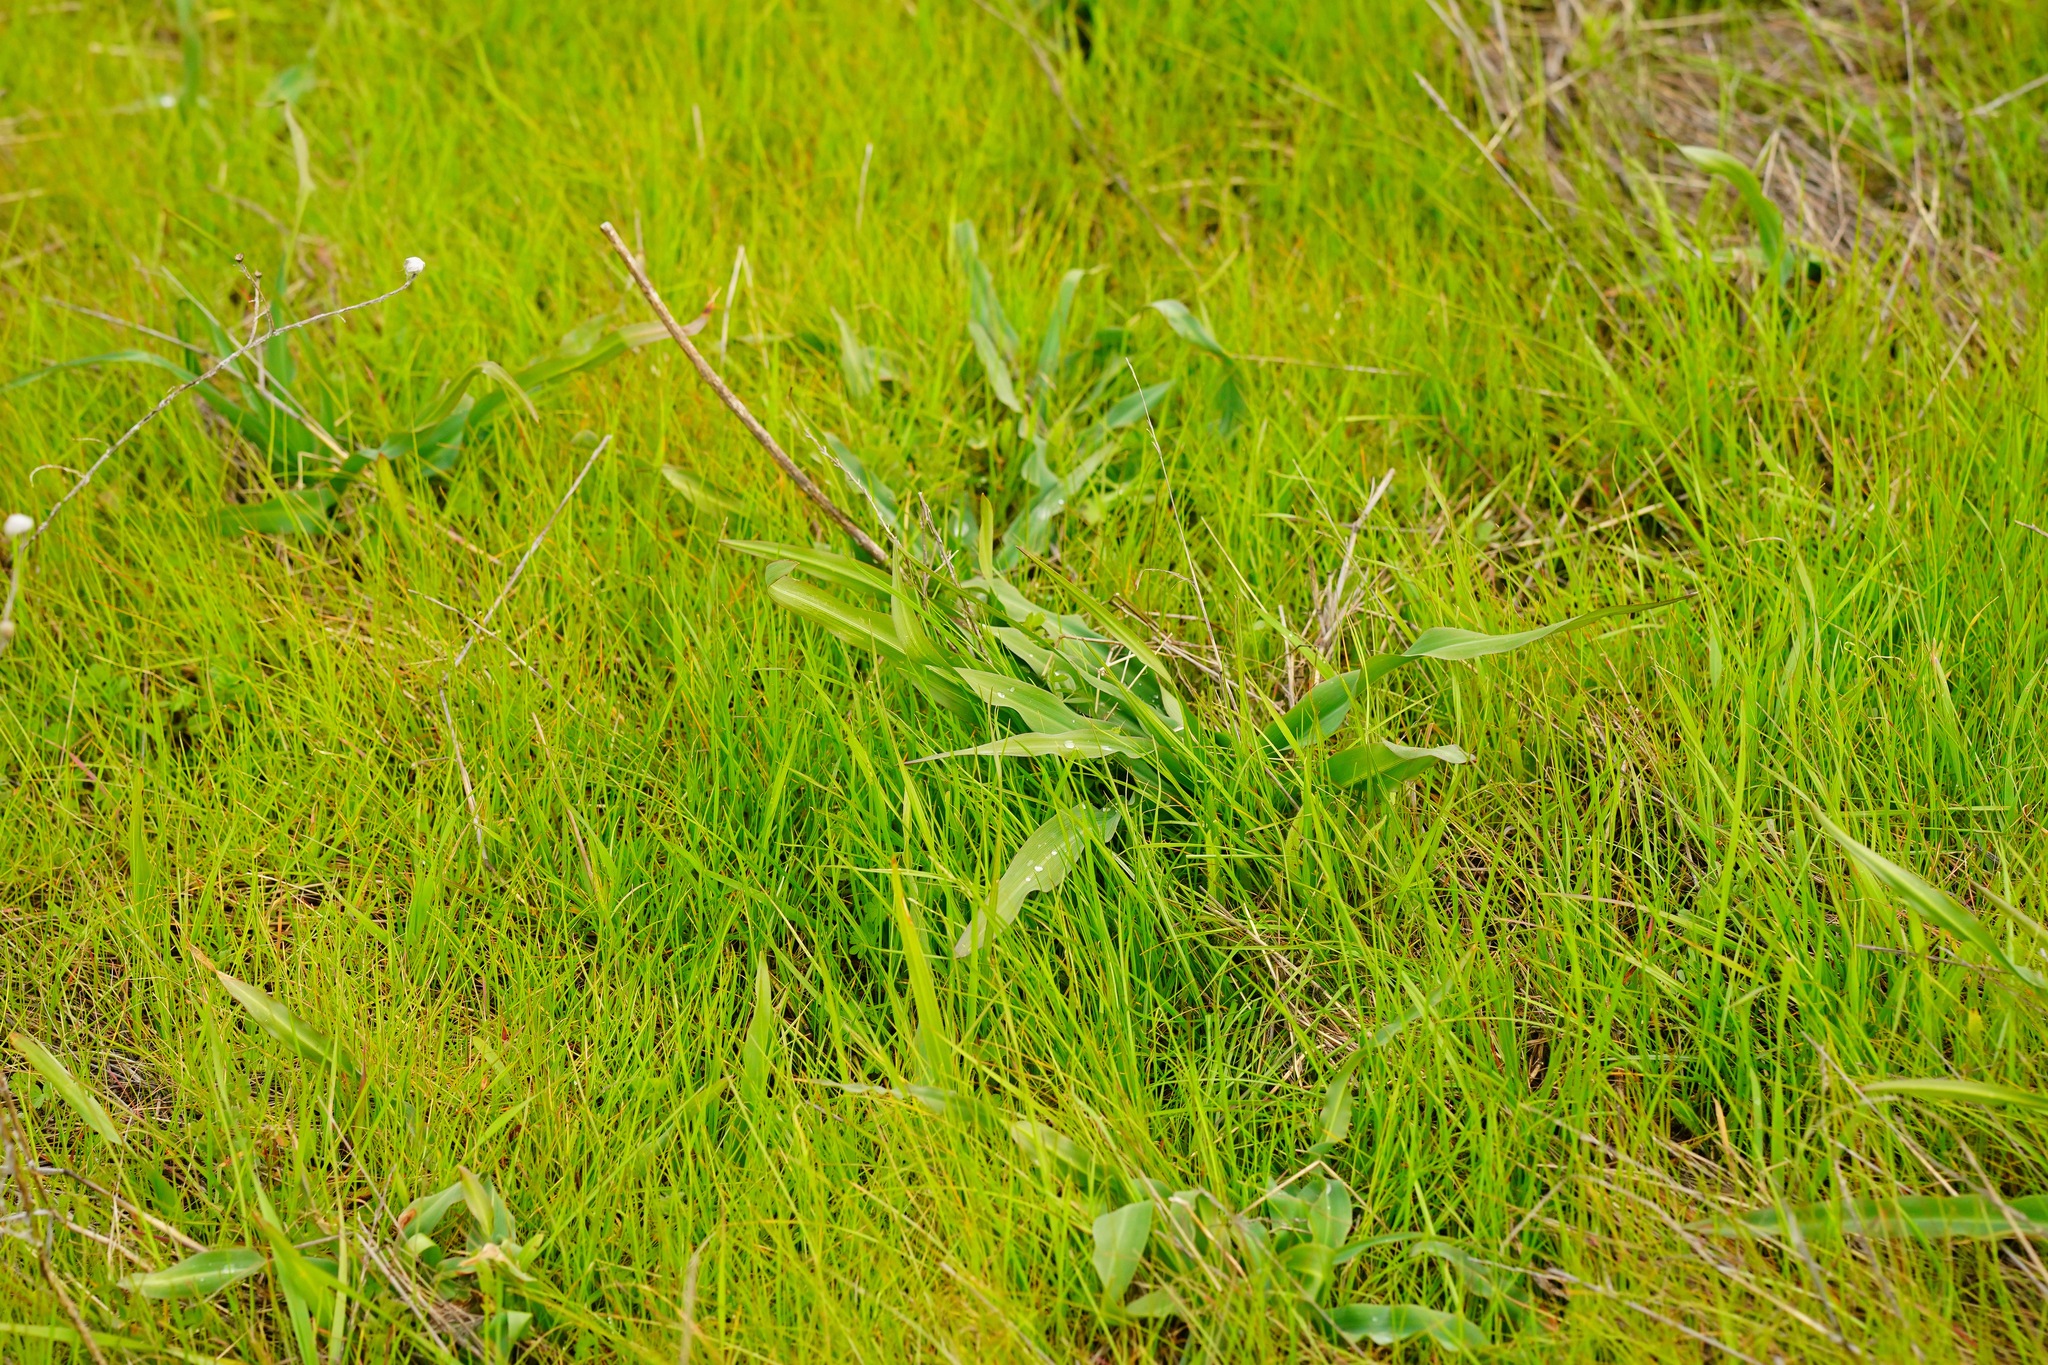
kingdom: Plantae
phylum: Tracheophyta
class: Liliopsida
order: Asparagales
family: Asparagaceae
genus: Chlorogalum
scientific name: Chlorogalum pomeridianum
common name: Amole
